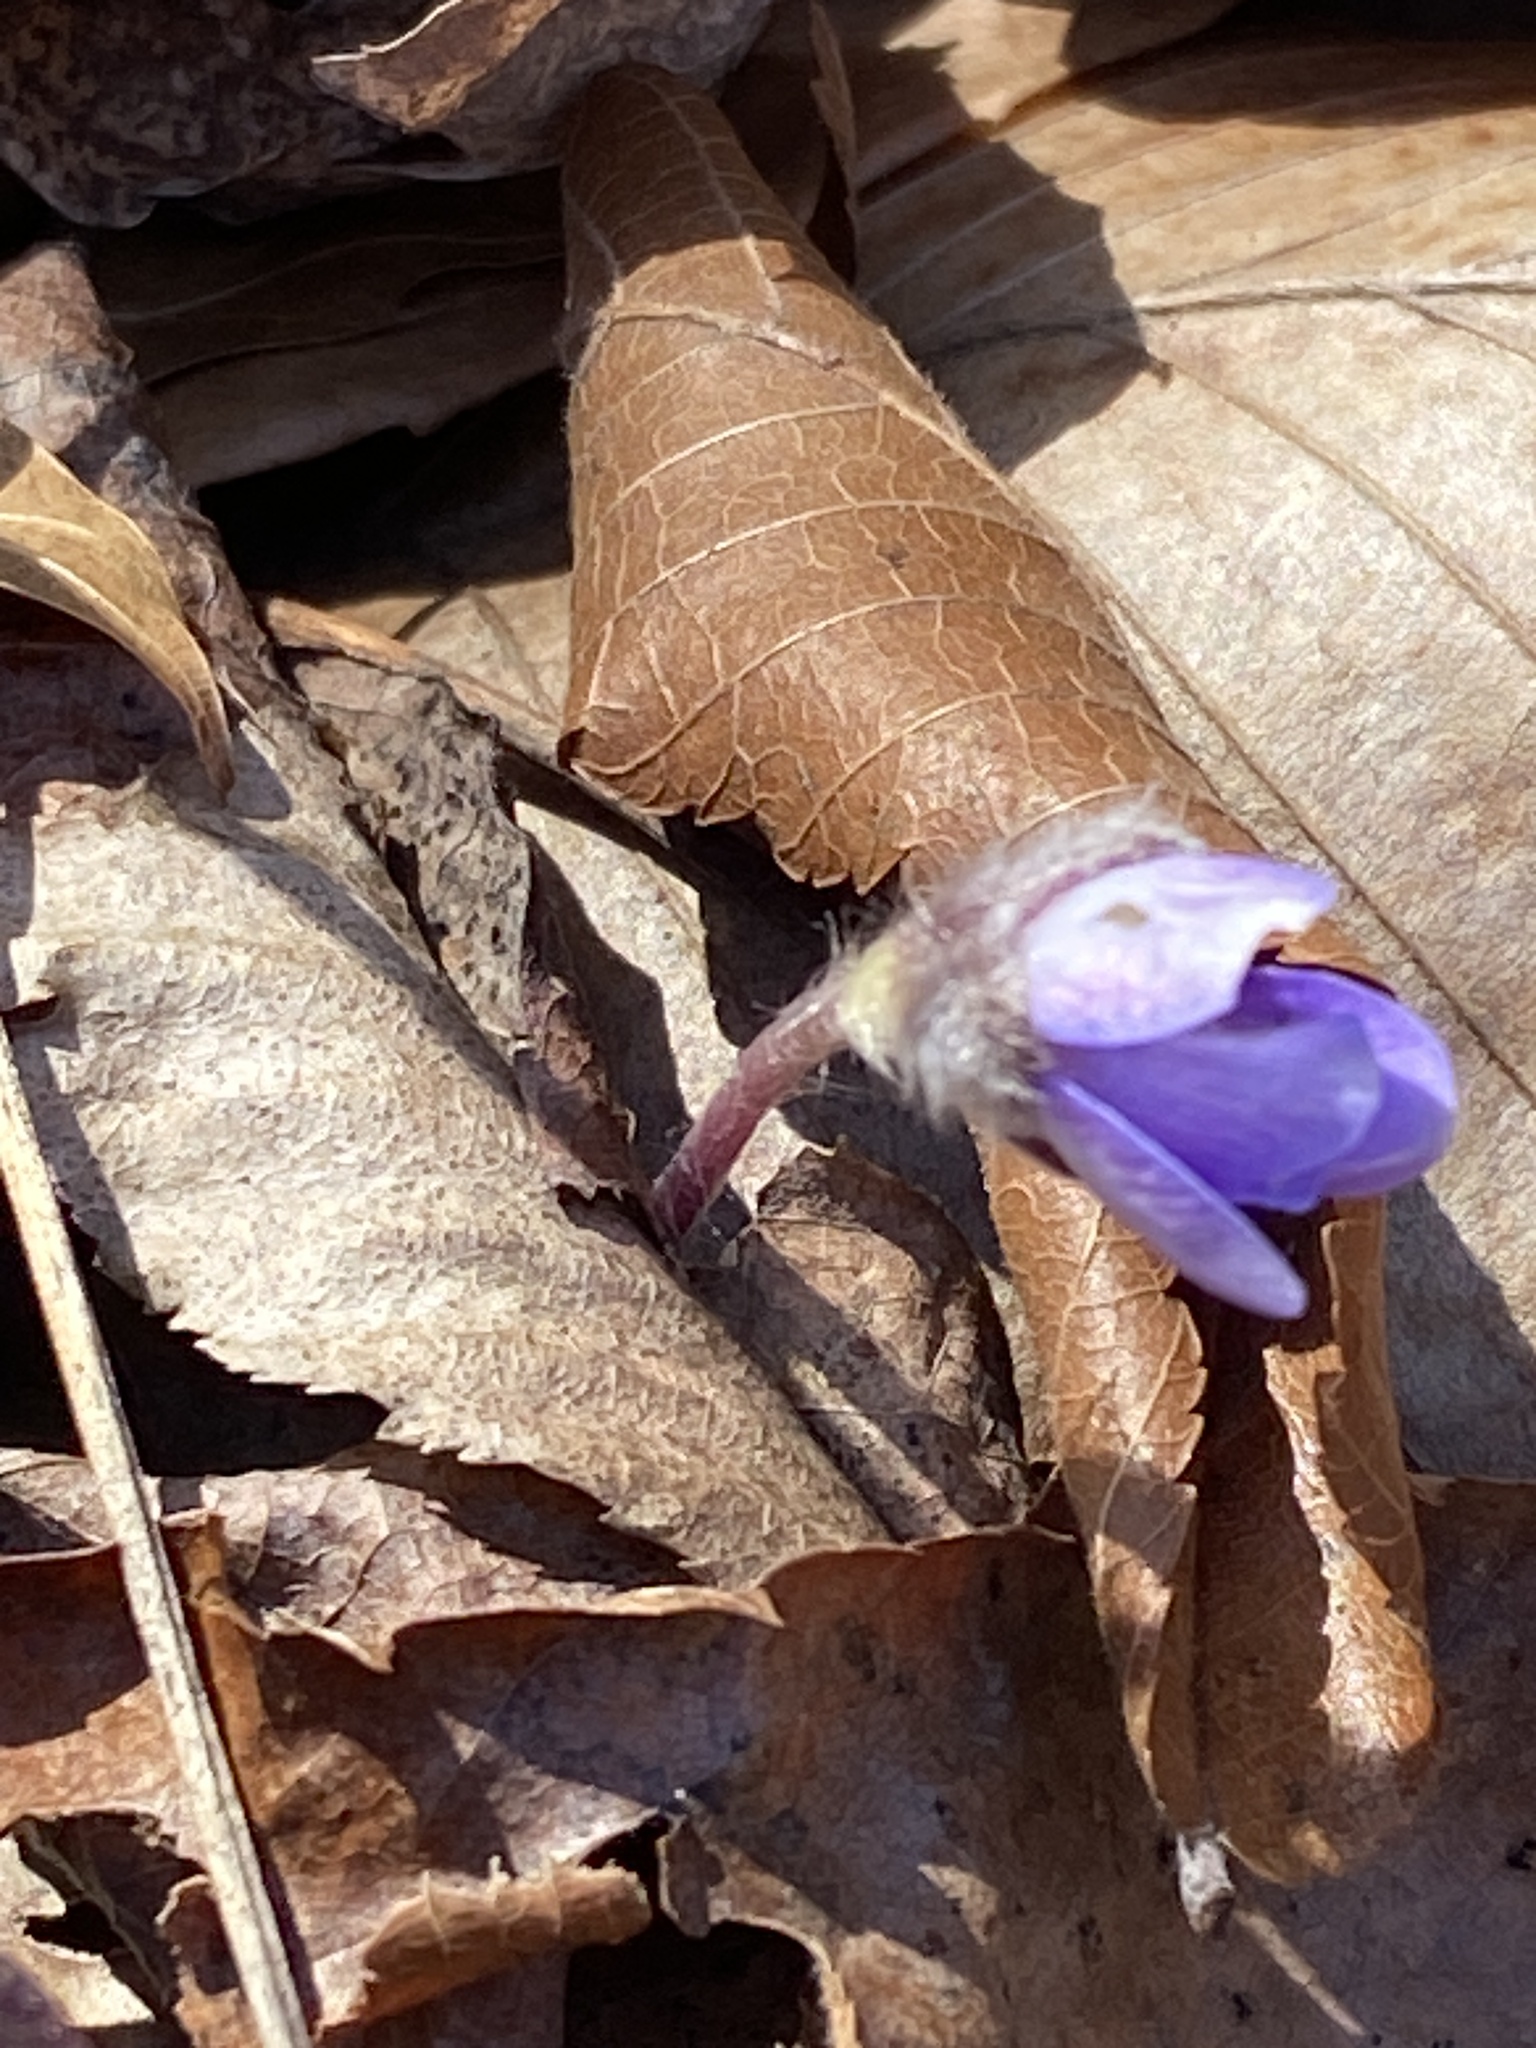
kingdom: Plantae
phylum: Tracheophyta
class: Magnoliopsida
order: Ranunculales
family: Ranunculaceae
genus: Hepatica
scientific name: Hepatica americana
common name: American hepatica
